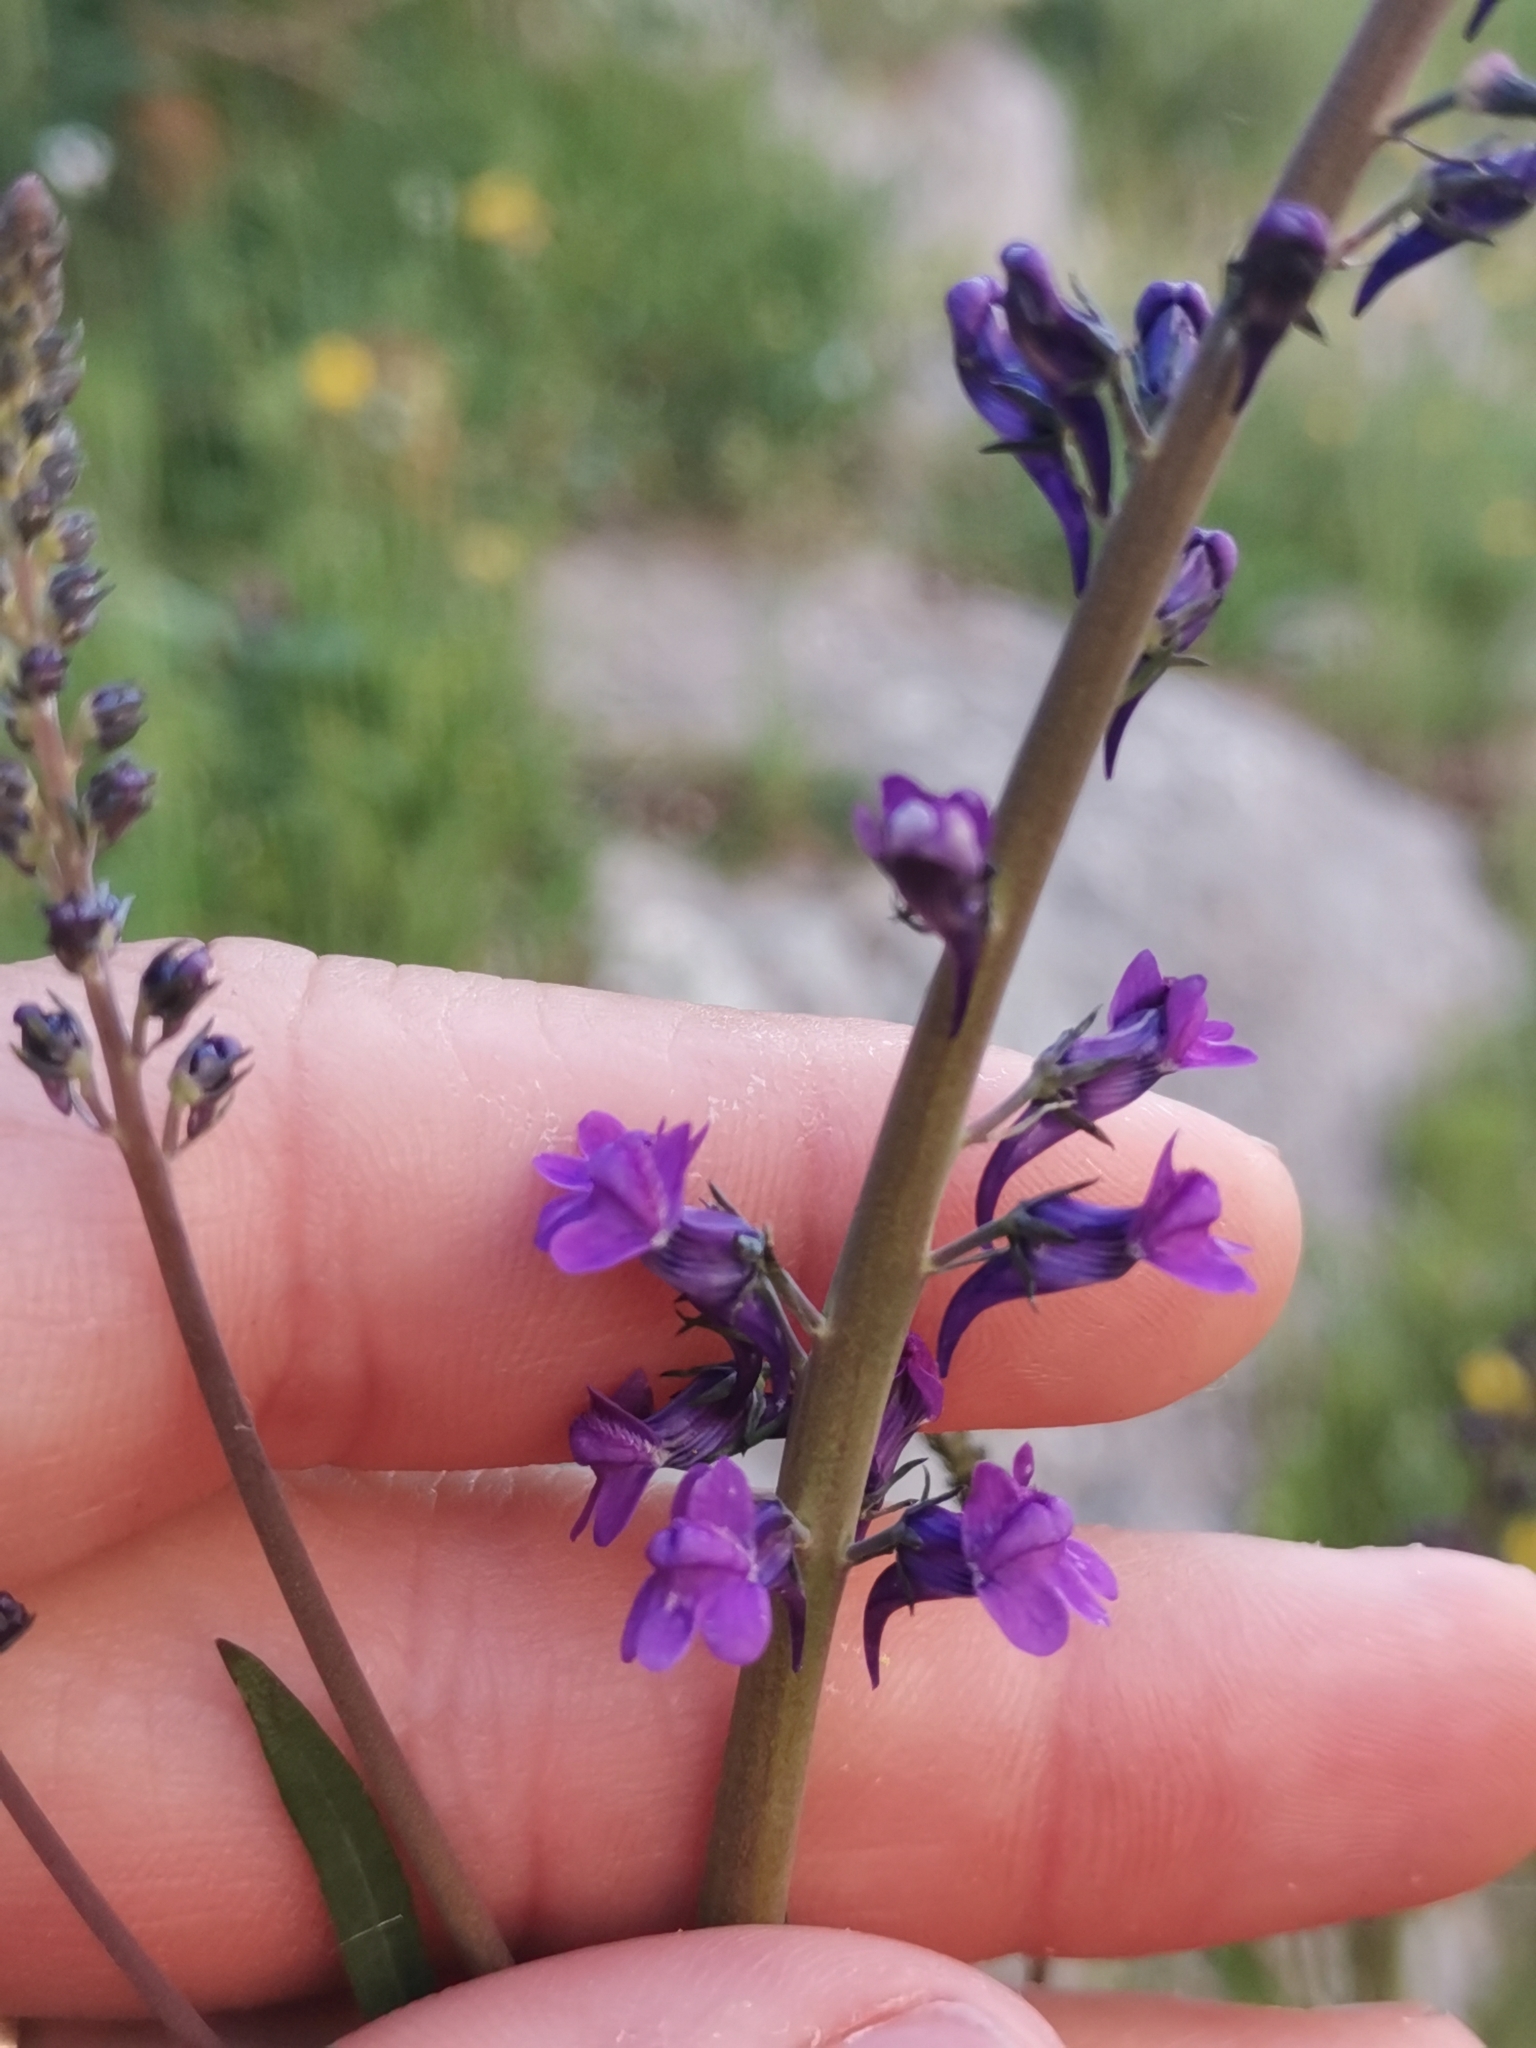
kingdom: Plantae
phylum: Tracheophyta
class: Magnoliopsida
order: Lamiales
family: Plantaginaceae
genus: Linaria
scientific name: Linaria purpurea
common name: Purple toadflax
